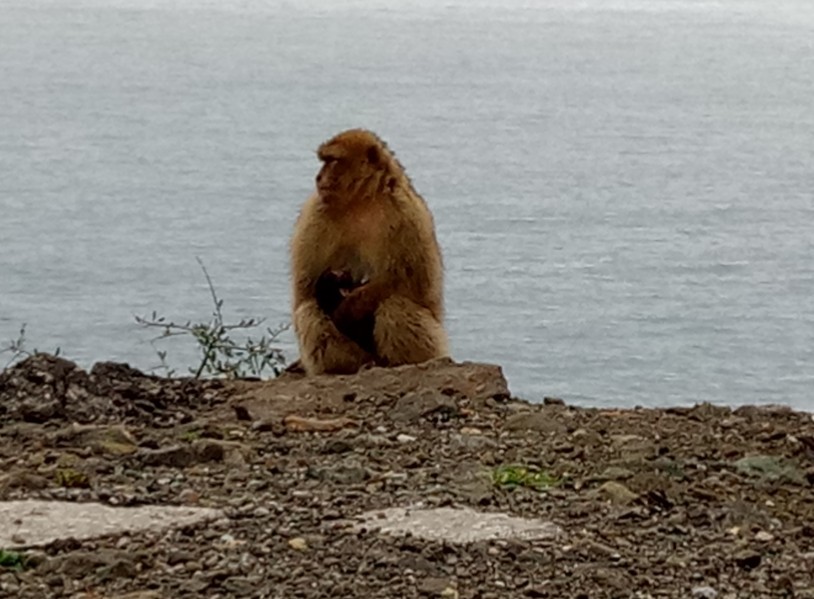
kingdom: Animalia
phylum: Chordata
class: Mammalia
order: Primates
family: Cercopithecidae
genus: Macaca
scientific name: Macaca sylvanus
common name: Barbary macaque
